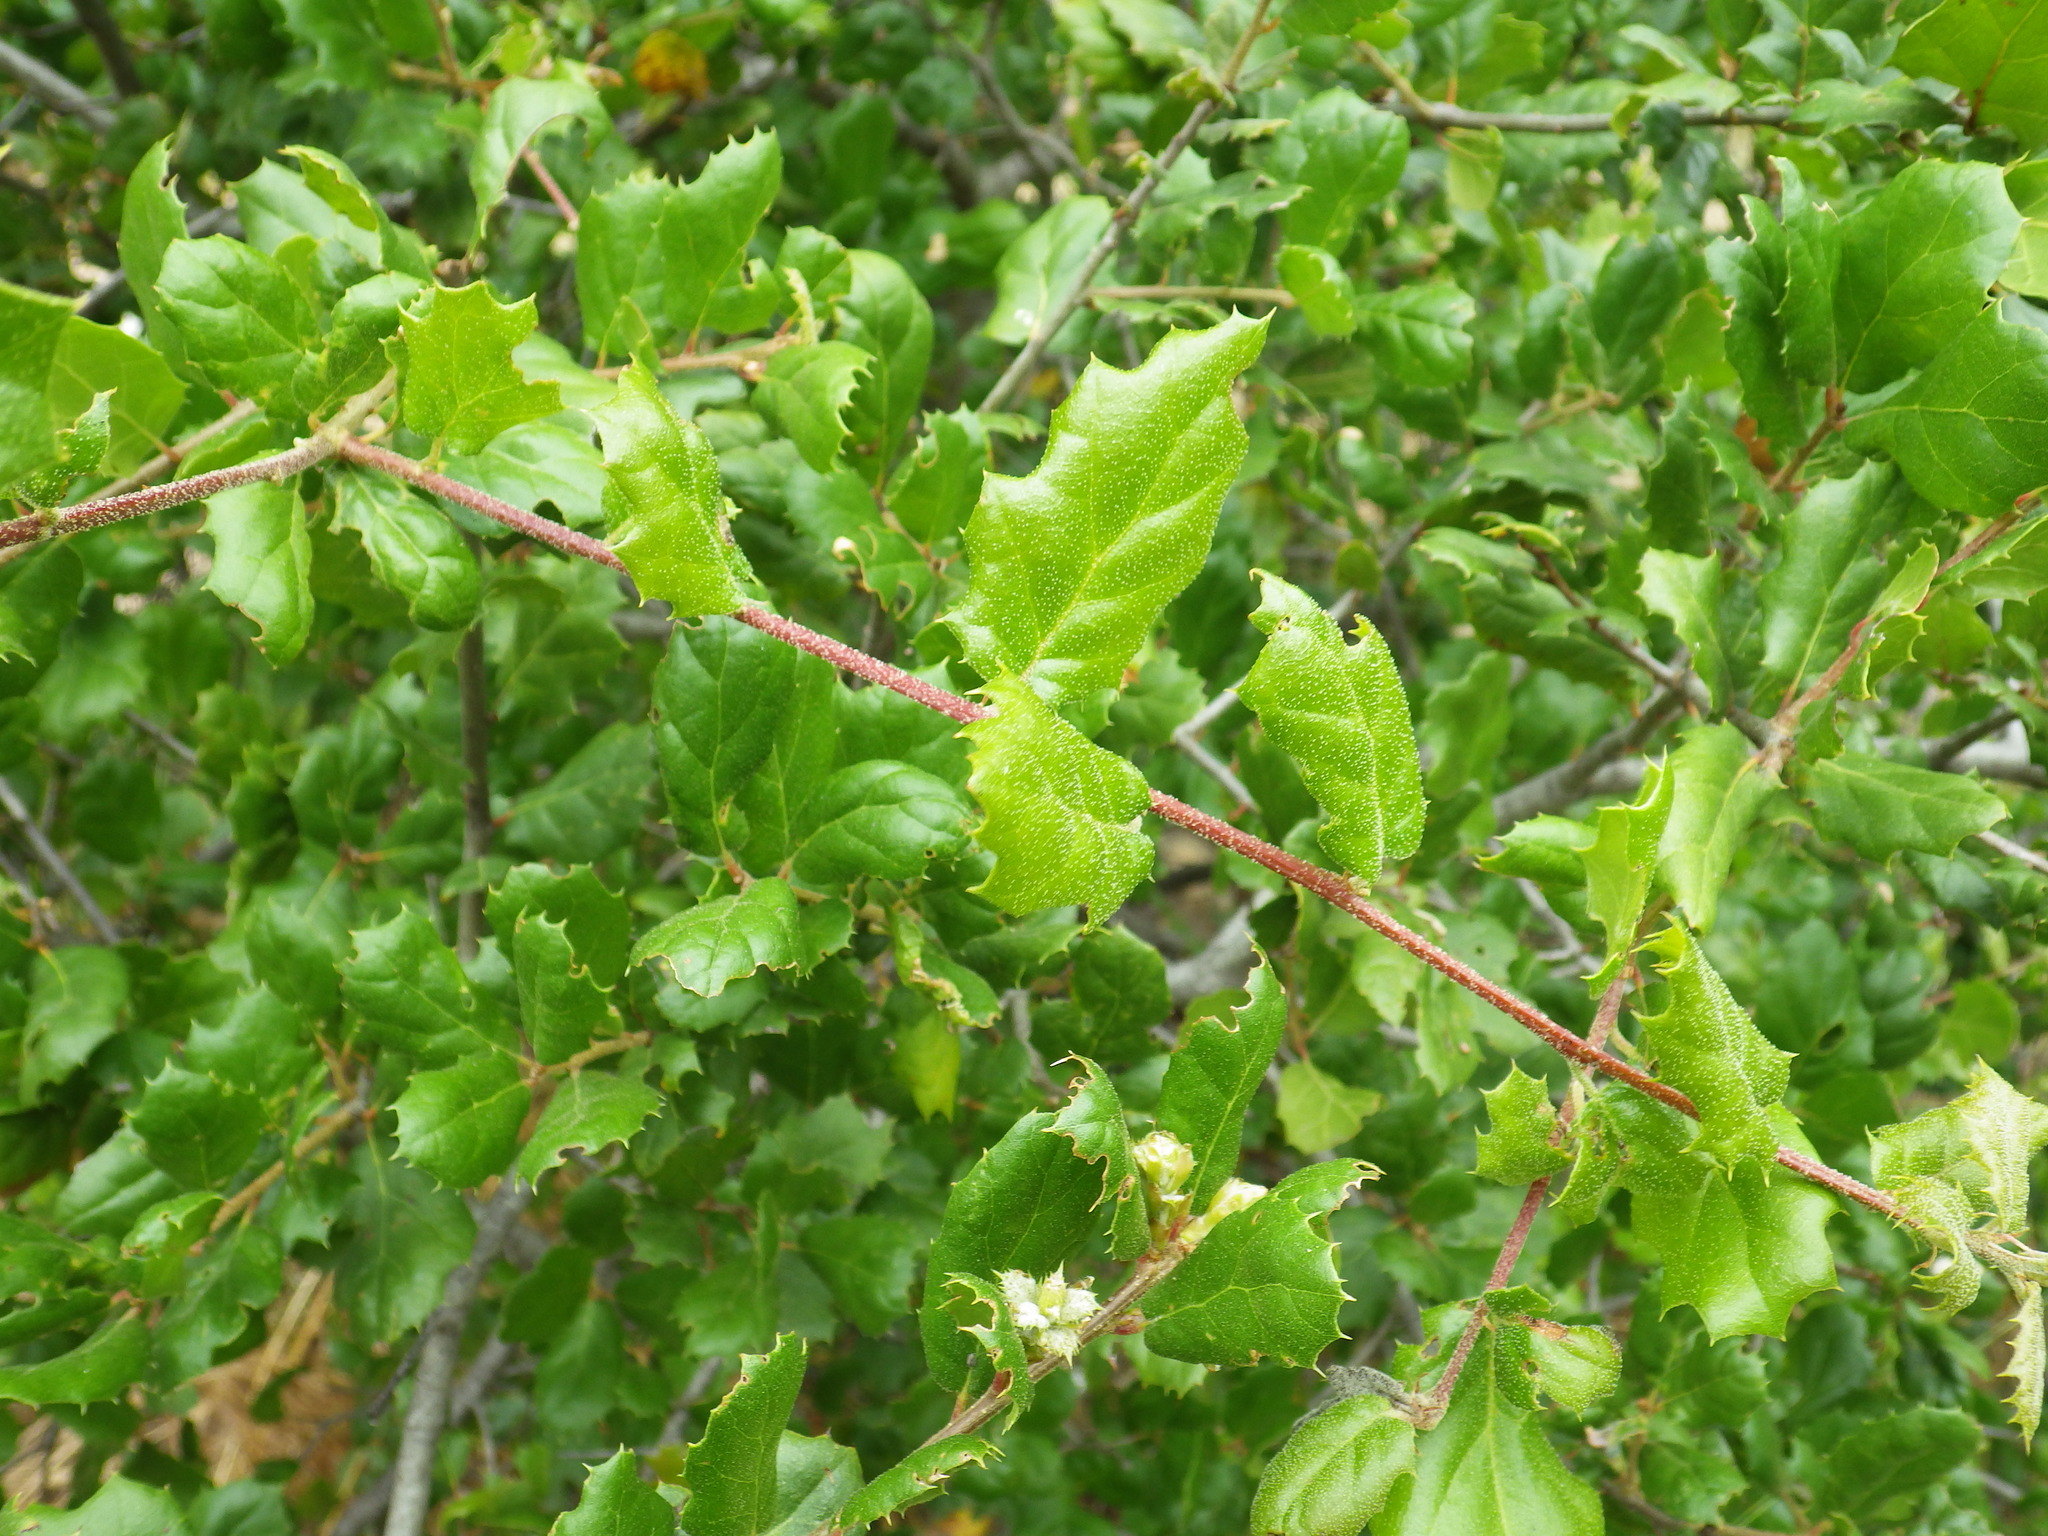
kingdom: Plantae
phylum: Tracheophyta
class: Magnoliopsida
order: Fagales
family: Fagaceae
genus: Quercus
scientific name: Quercus agrifolia
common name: California live oak
